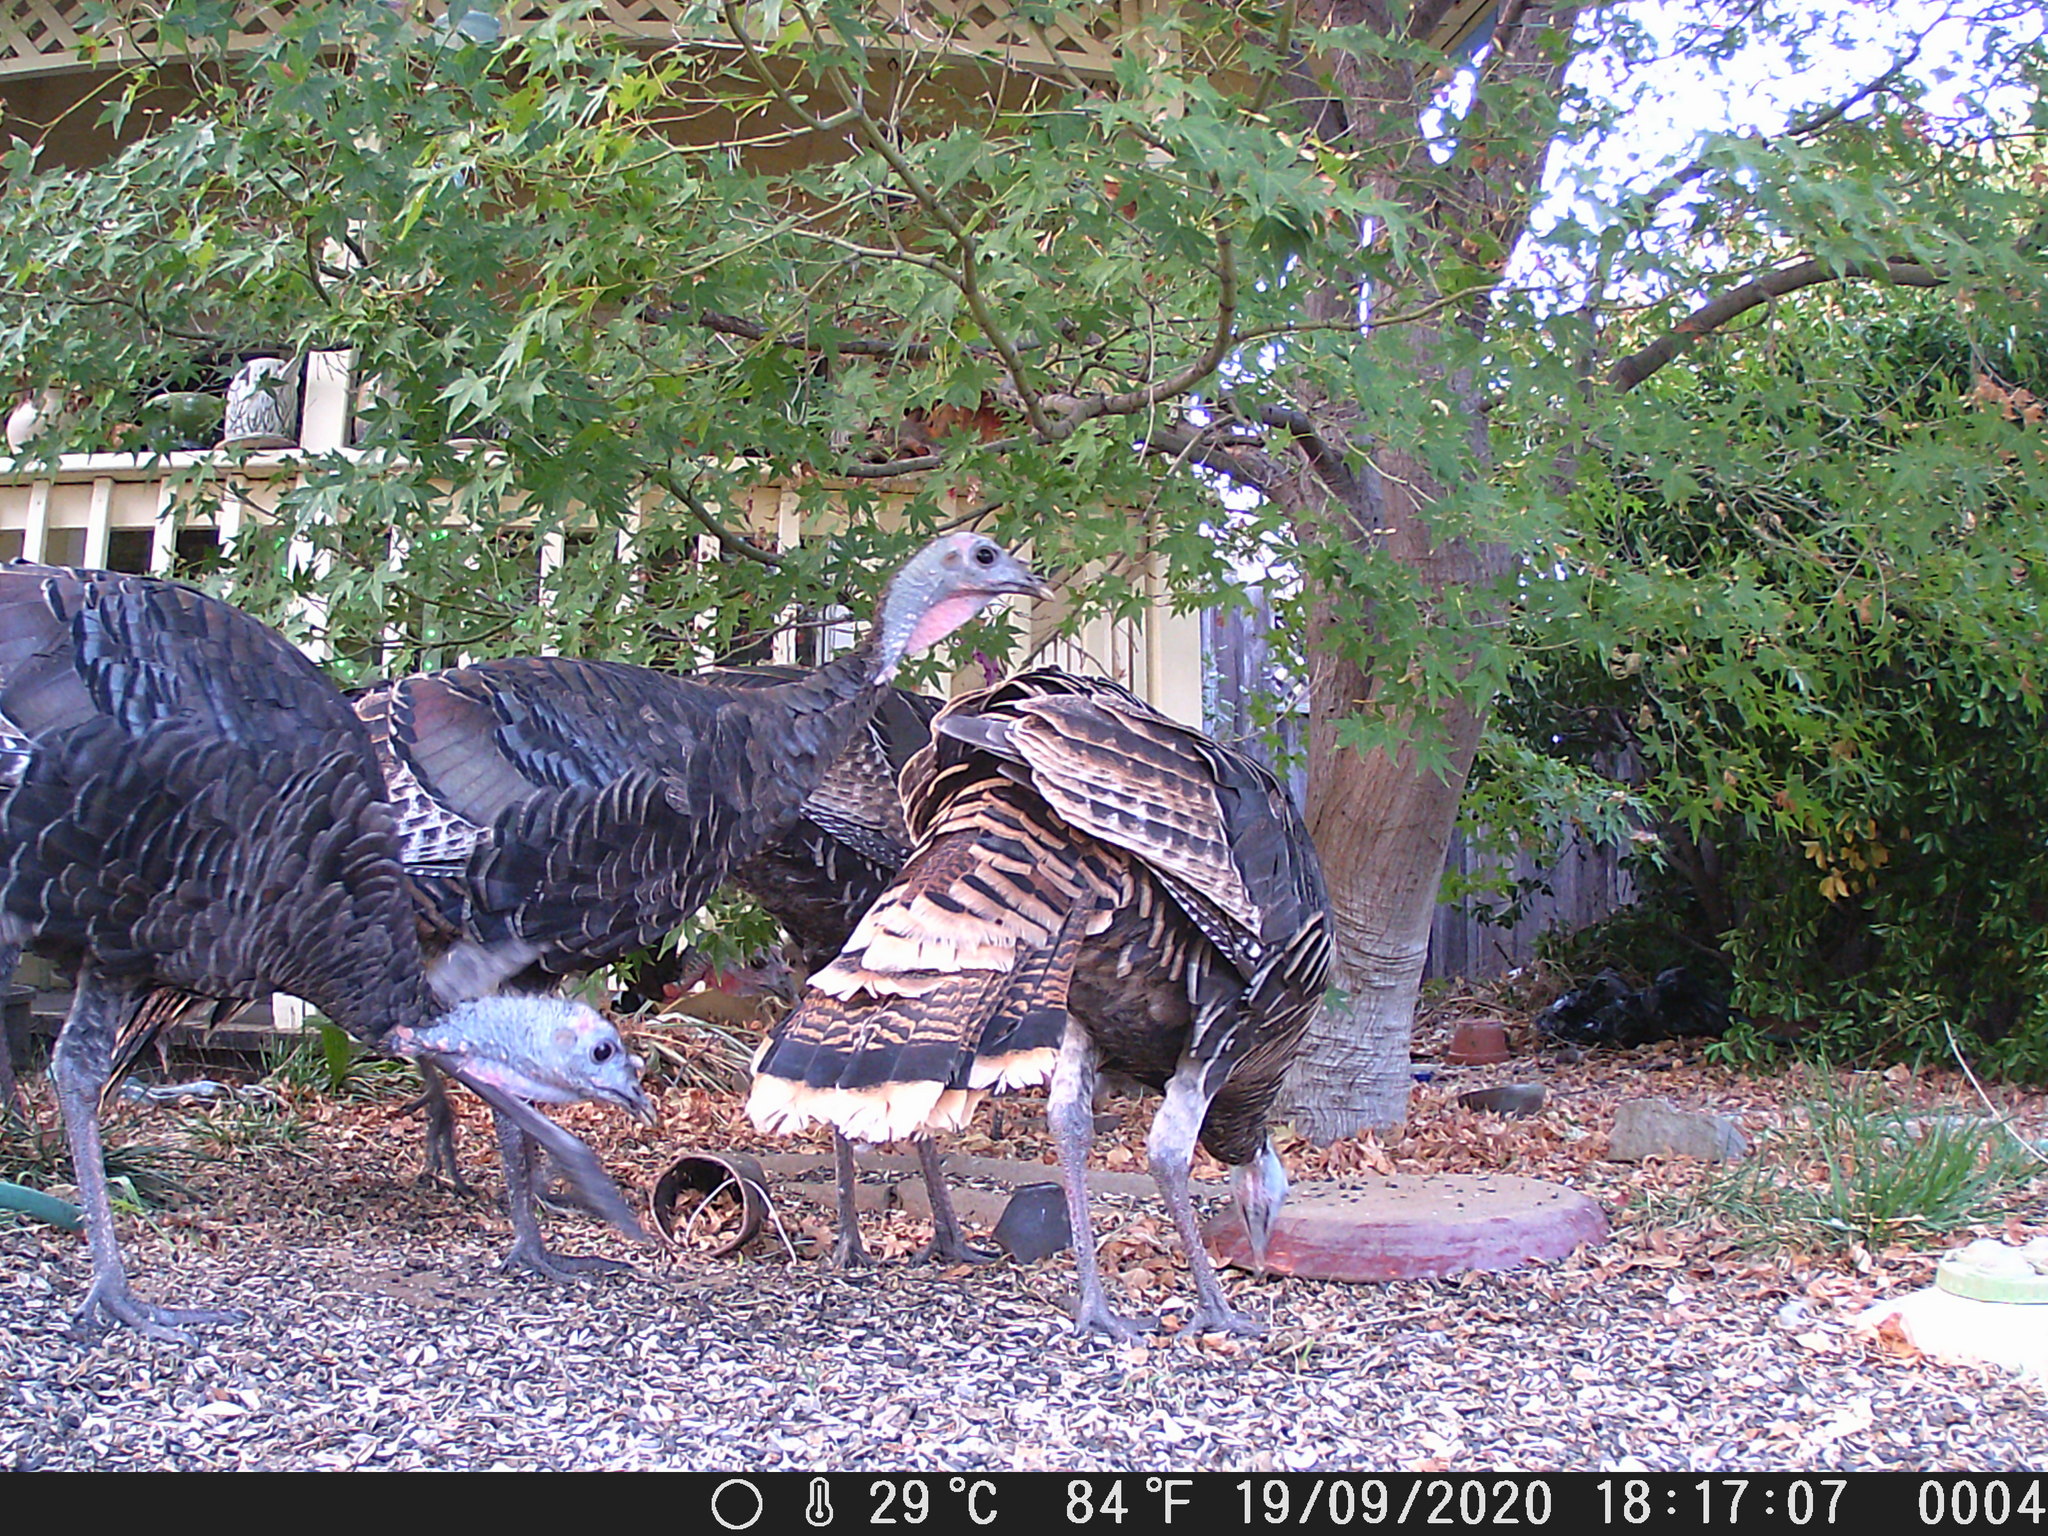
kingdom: Animalia
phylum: Chordata
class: Aves
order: Galliformes
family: Phasianidae
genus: Meleagris
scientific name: Meleagris gallopavo
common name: Wild turkey
